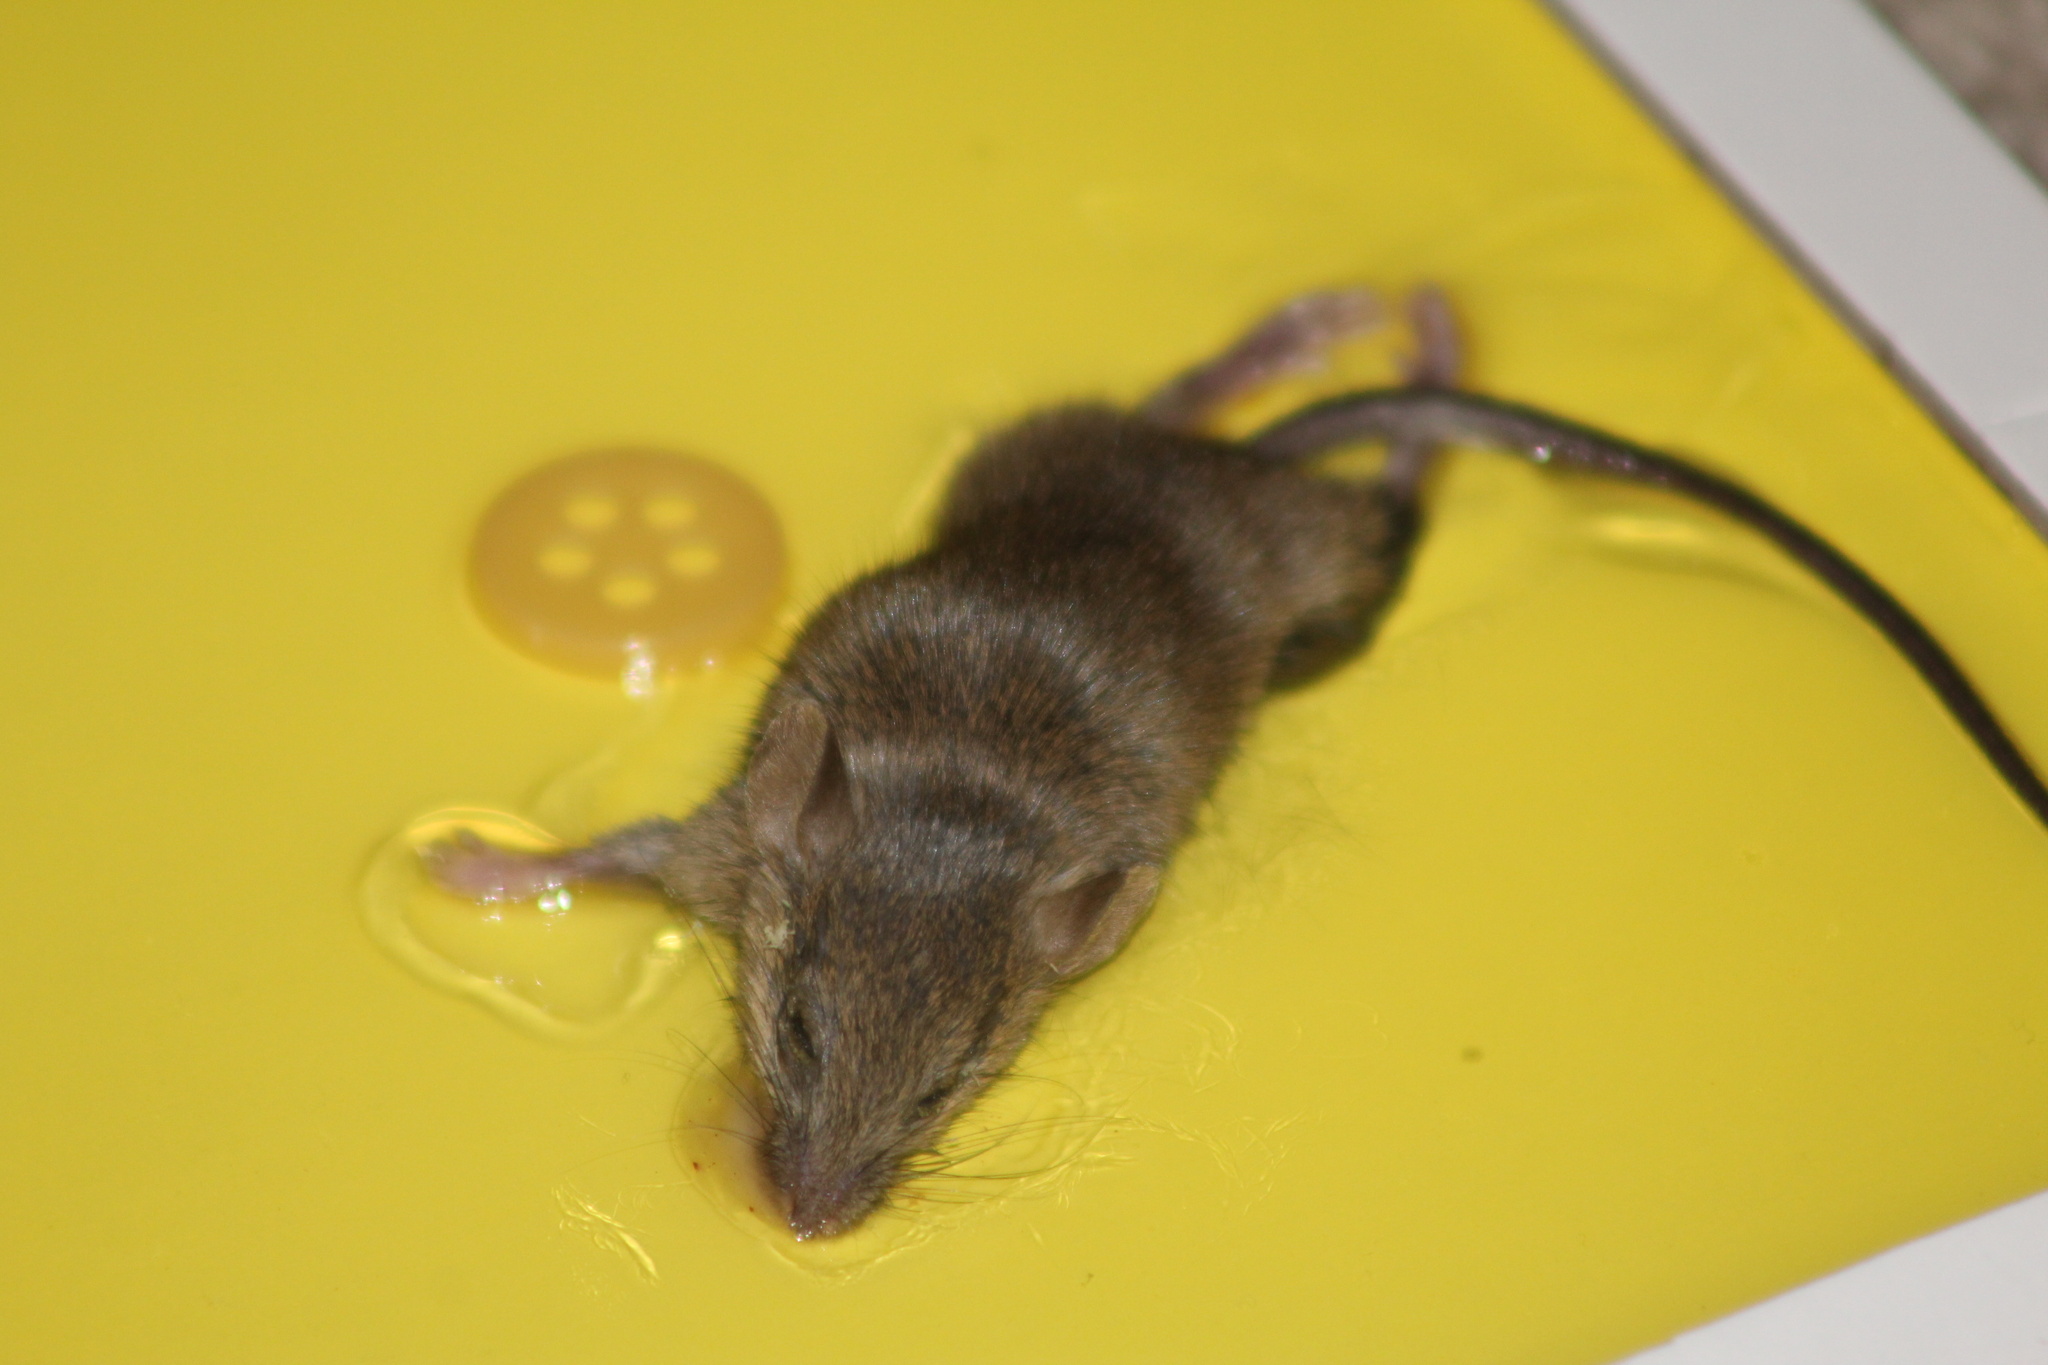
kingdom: Animalia
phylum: Chordata
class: Mammalia
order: Rodentia
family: Muridae
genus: Mus
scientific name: Mus musculus
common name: House mouse
